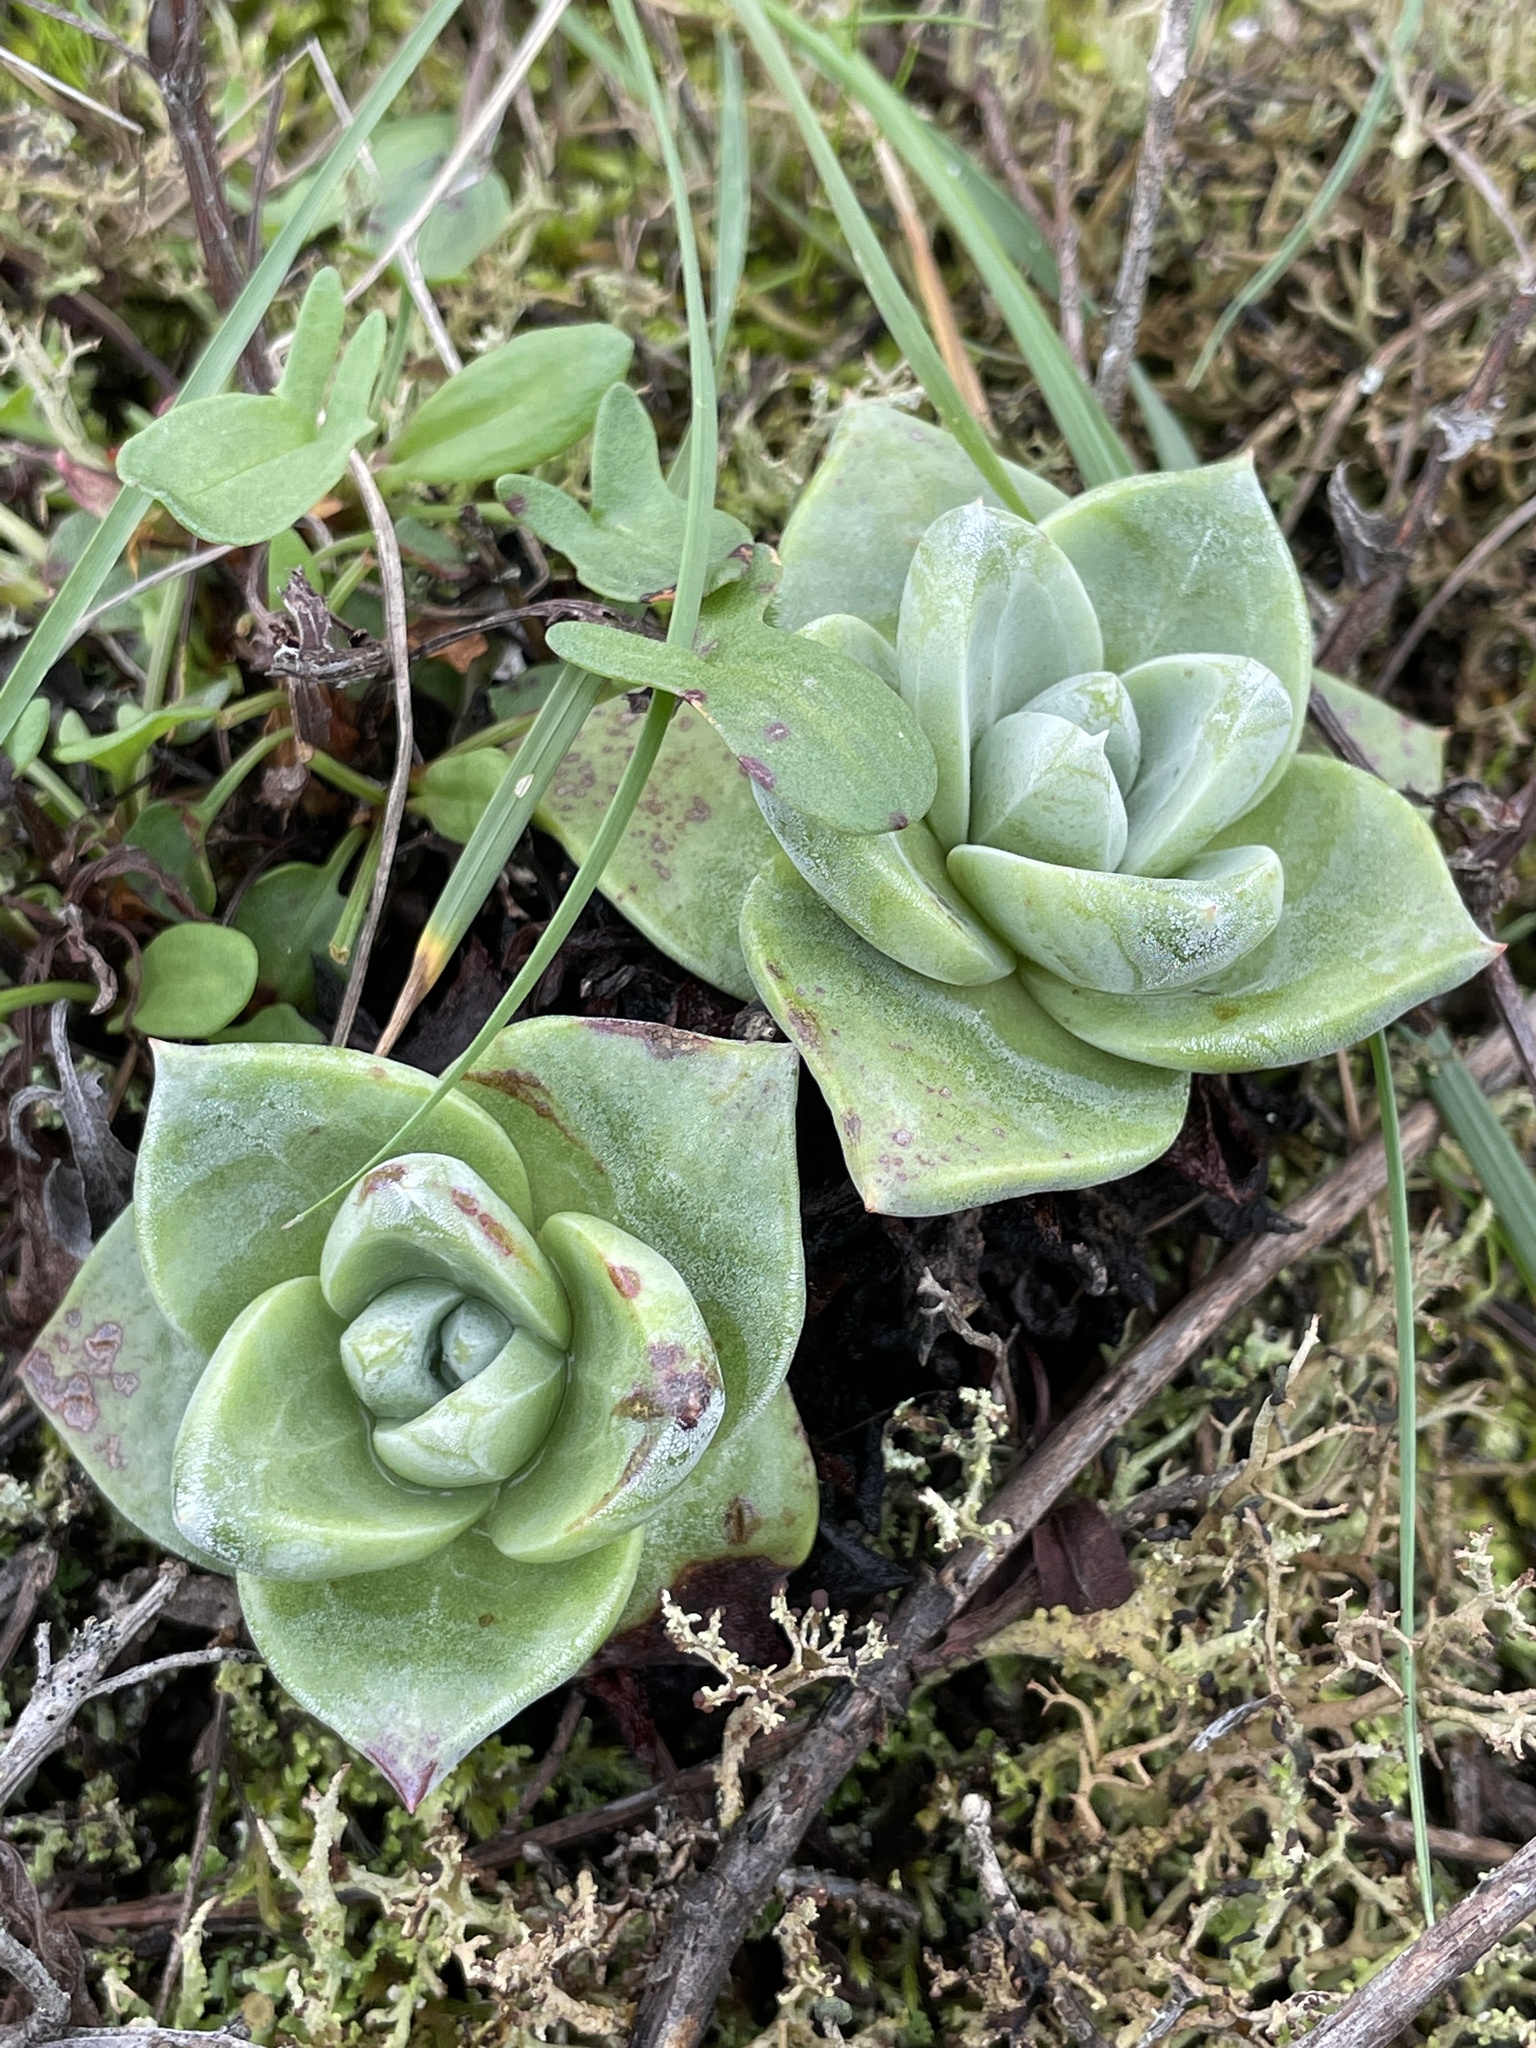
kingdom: Plantae
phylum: Tracheophyta
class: Magnoliopsida
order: Saxifragales
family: Crassulaceae
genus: Dudleya
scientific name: Dudleya farinosa
